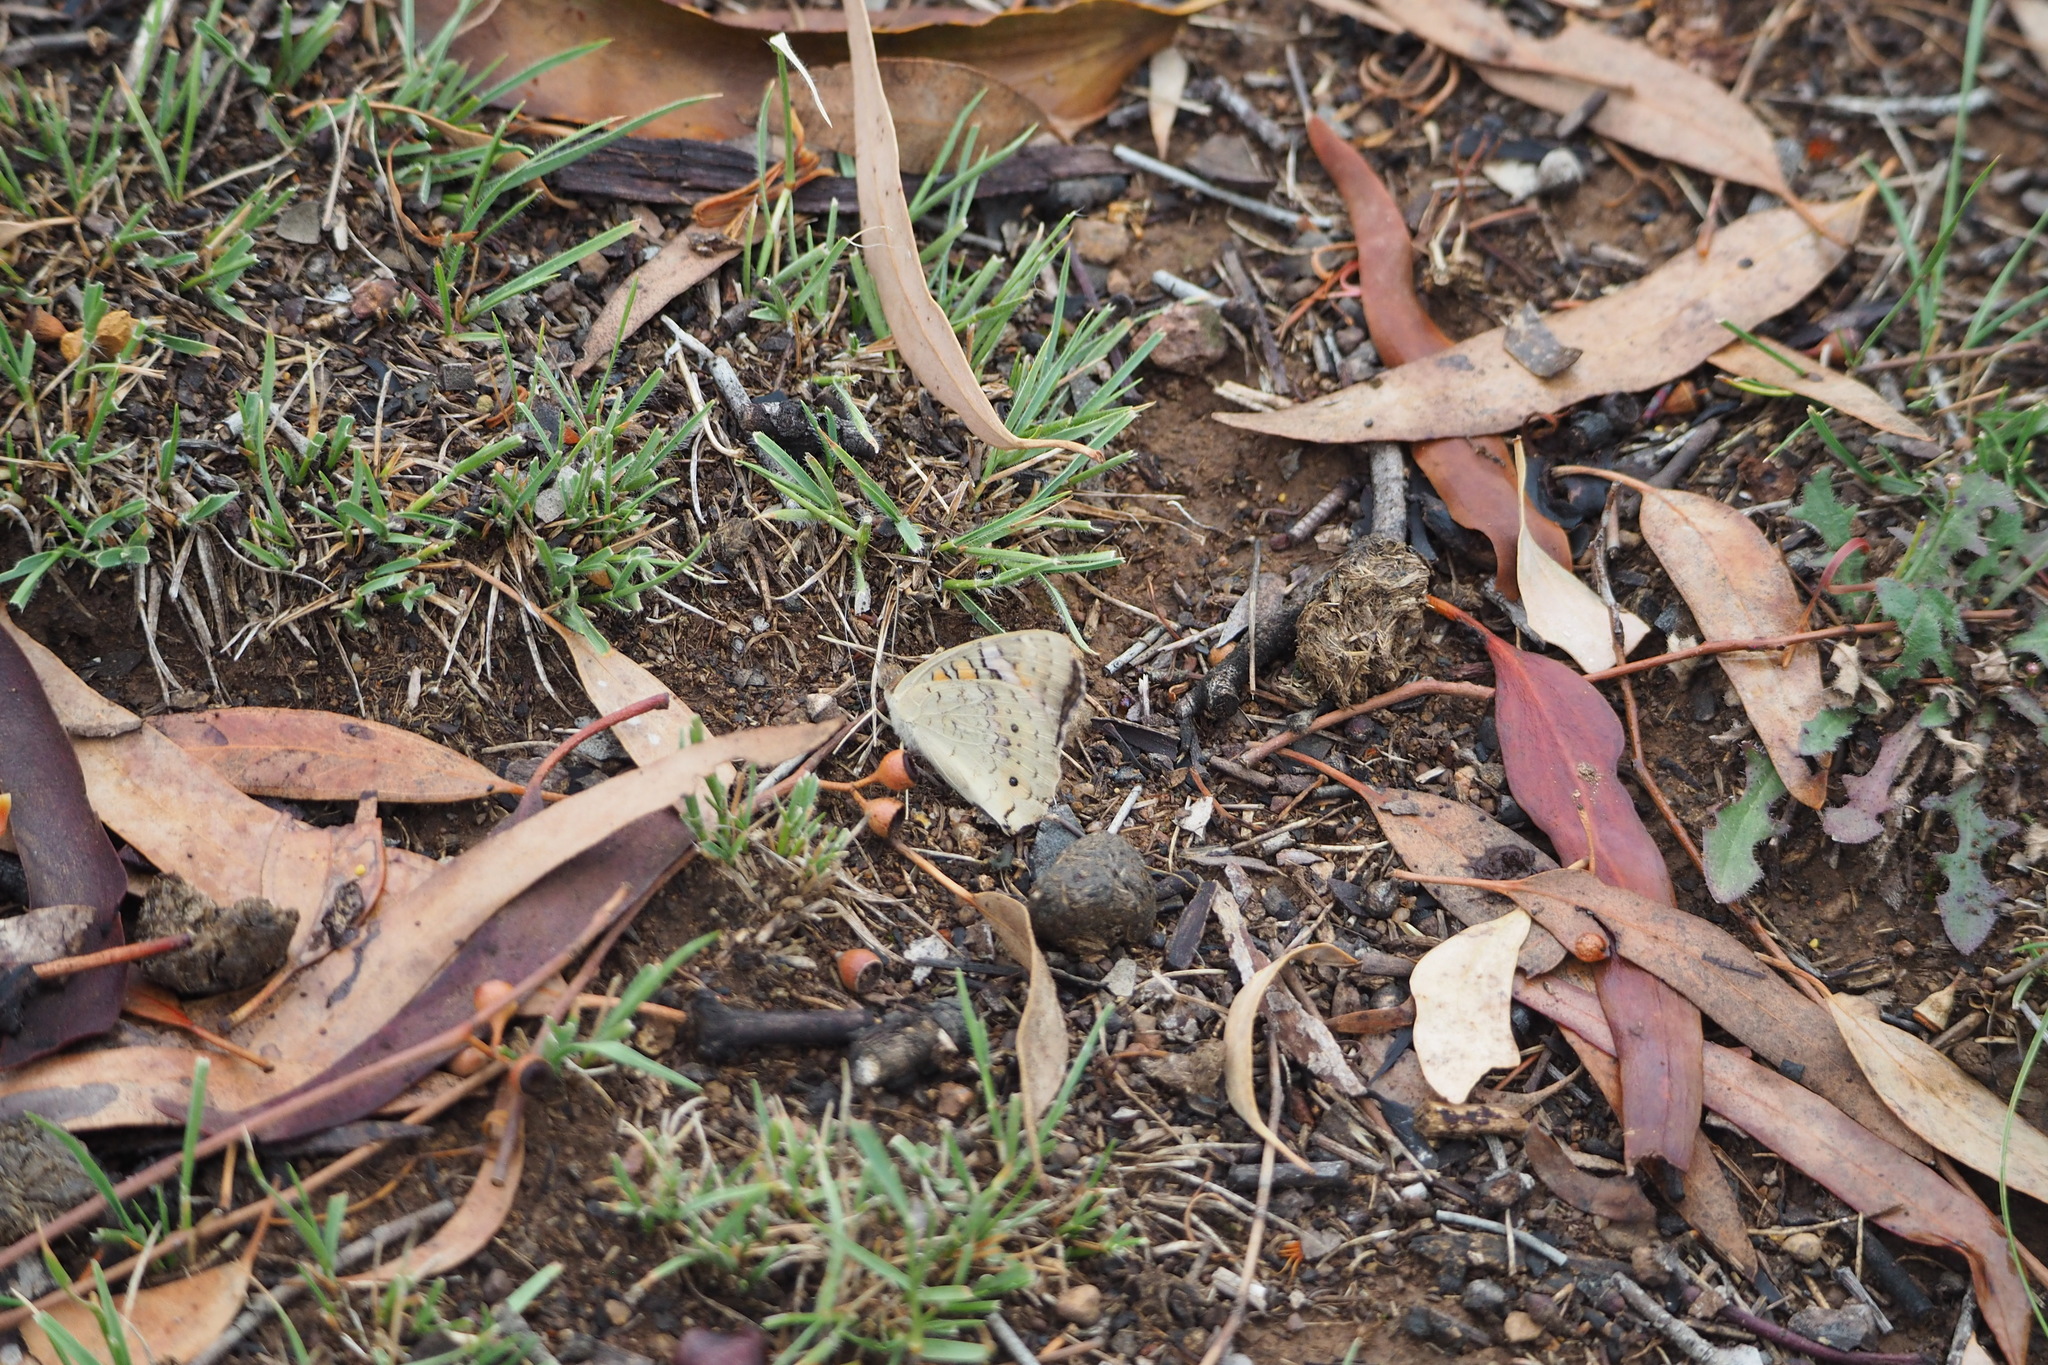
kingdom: Animalia
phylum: Arthropoda
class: Insecta
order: Lepidoptera
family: Nymphalidae
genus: Junonia
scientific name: Junonia villida
